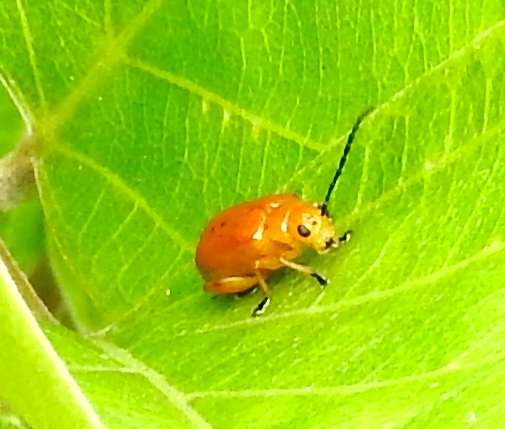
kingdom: Animalia
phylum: Arthropoda
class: Insecta
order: Coleoptera
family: Chrysomelidae
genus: Alticini
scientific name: Alticini
